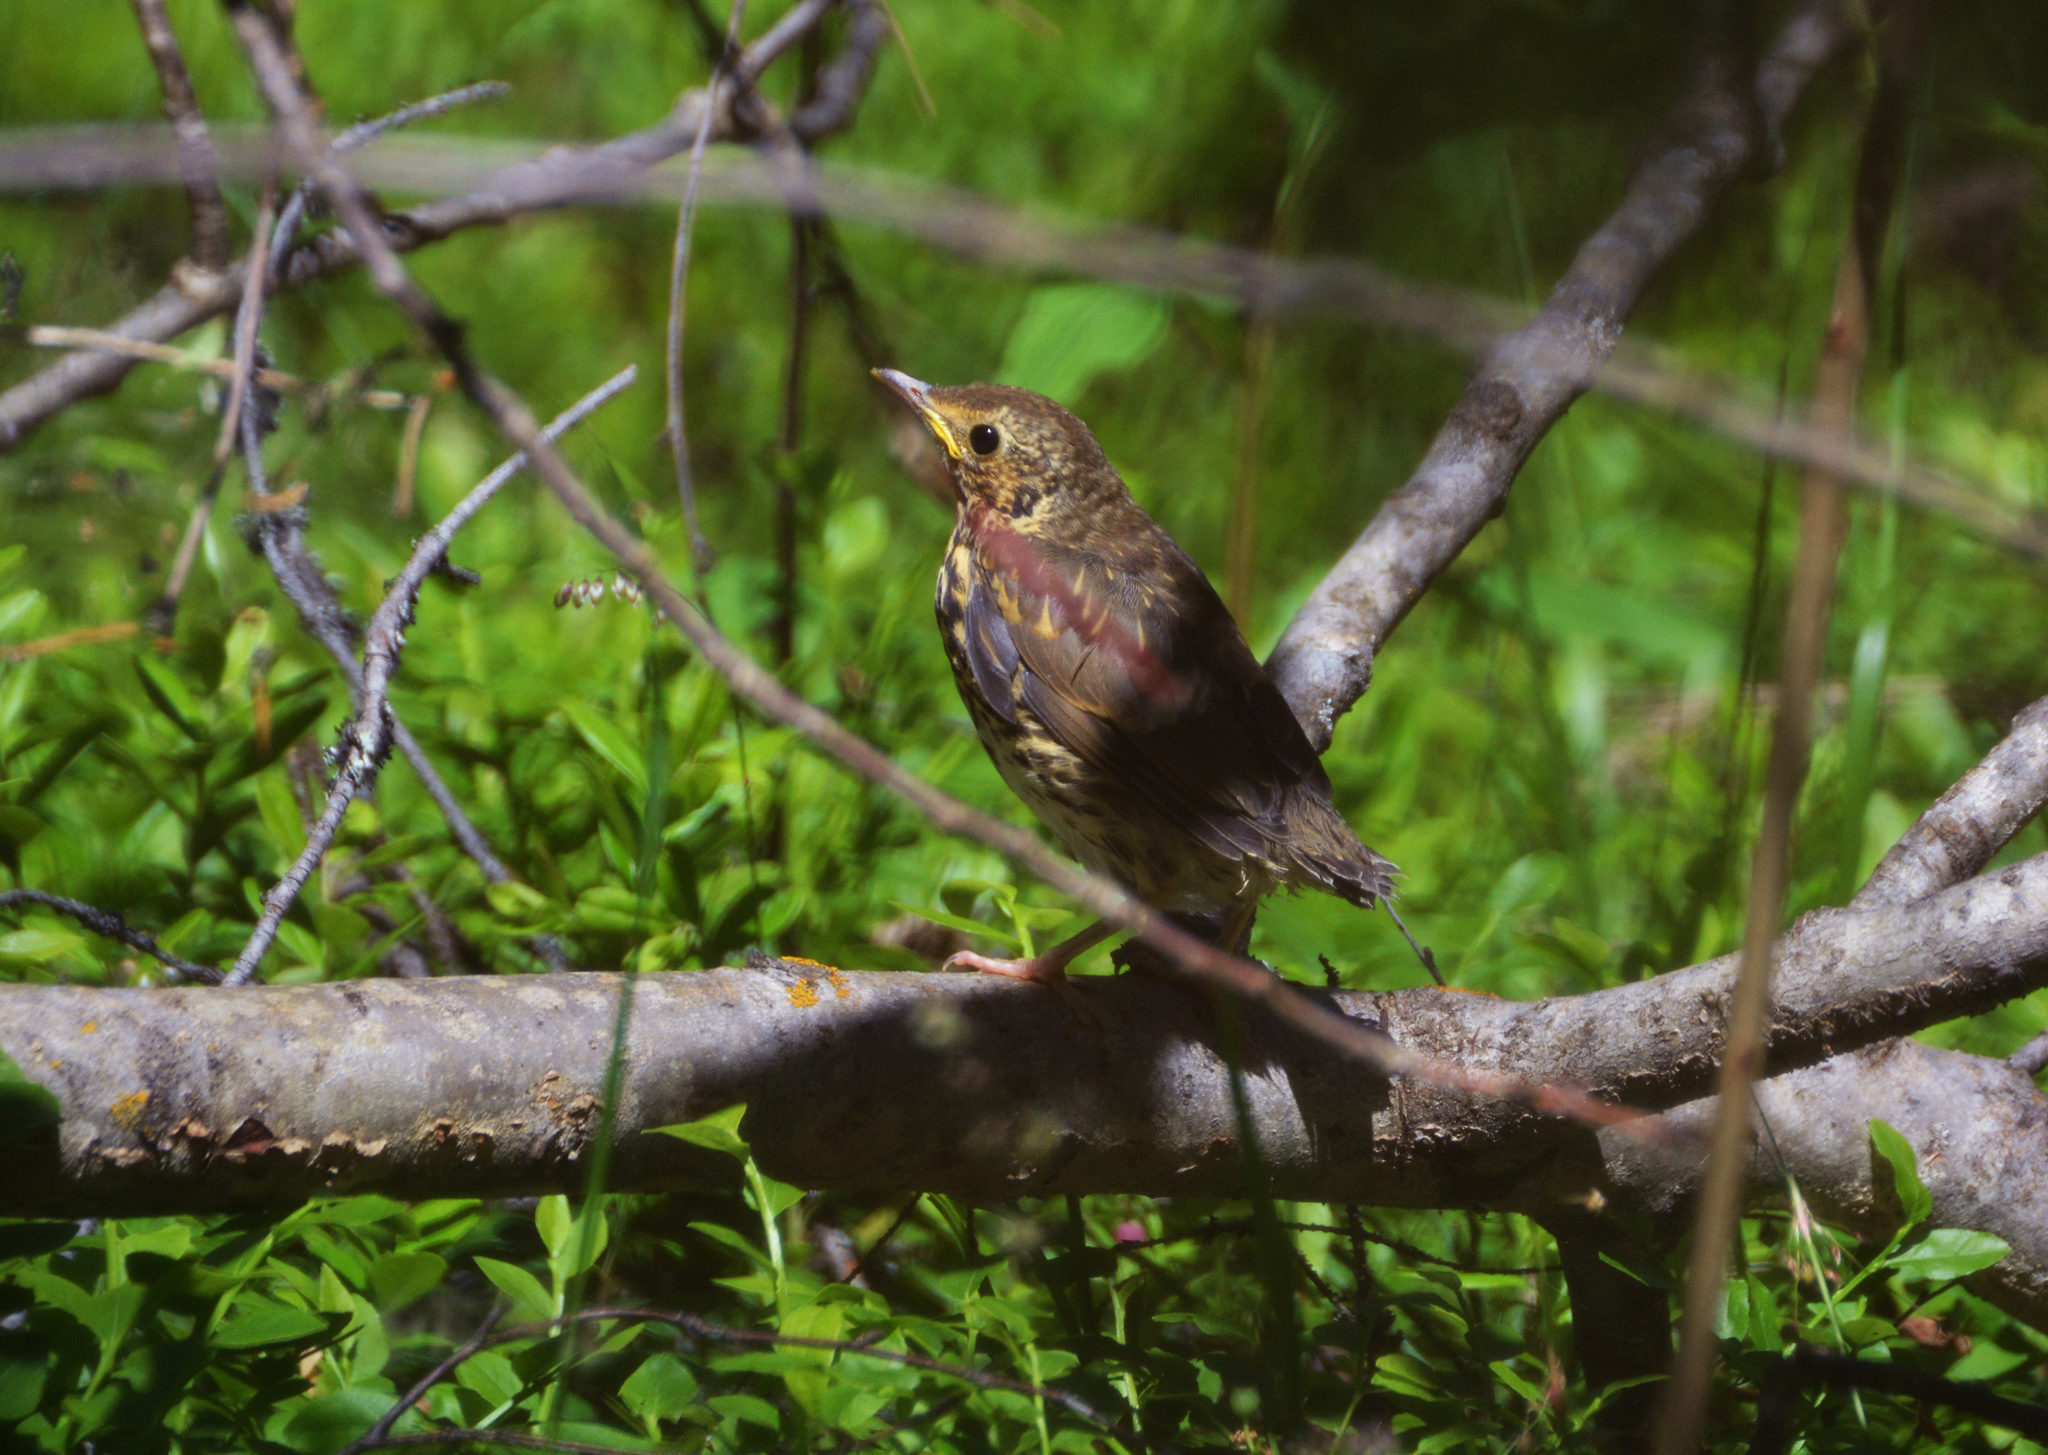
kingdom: Animalia
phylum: Chordata
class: Aves
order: Passeriformes
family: Turdidae
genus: Turdus
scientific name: Turdus philomelos
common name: Song thrush
